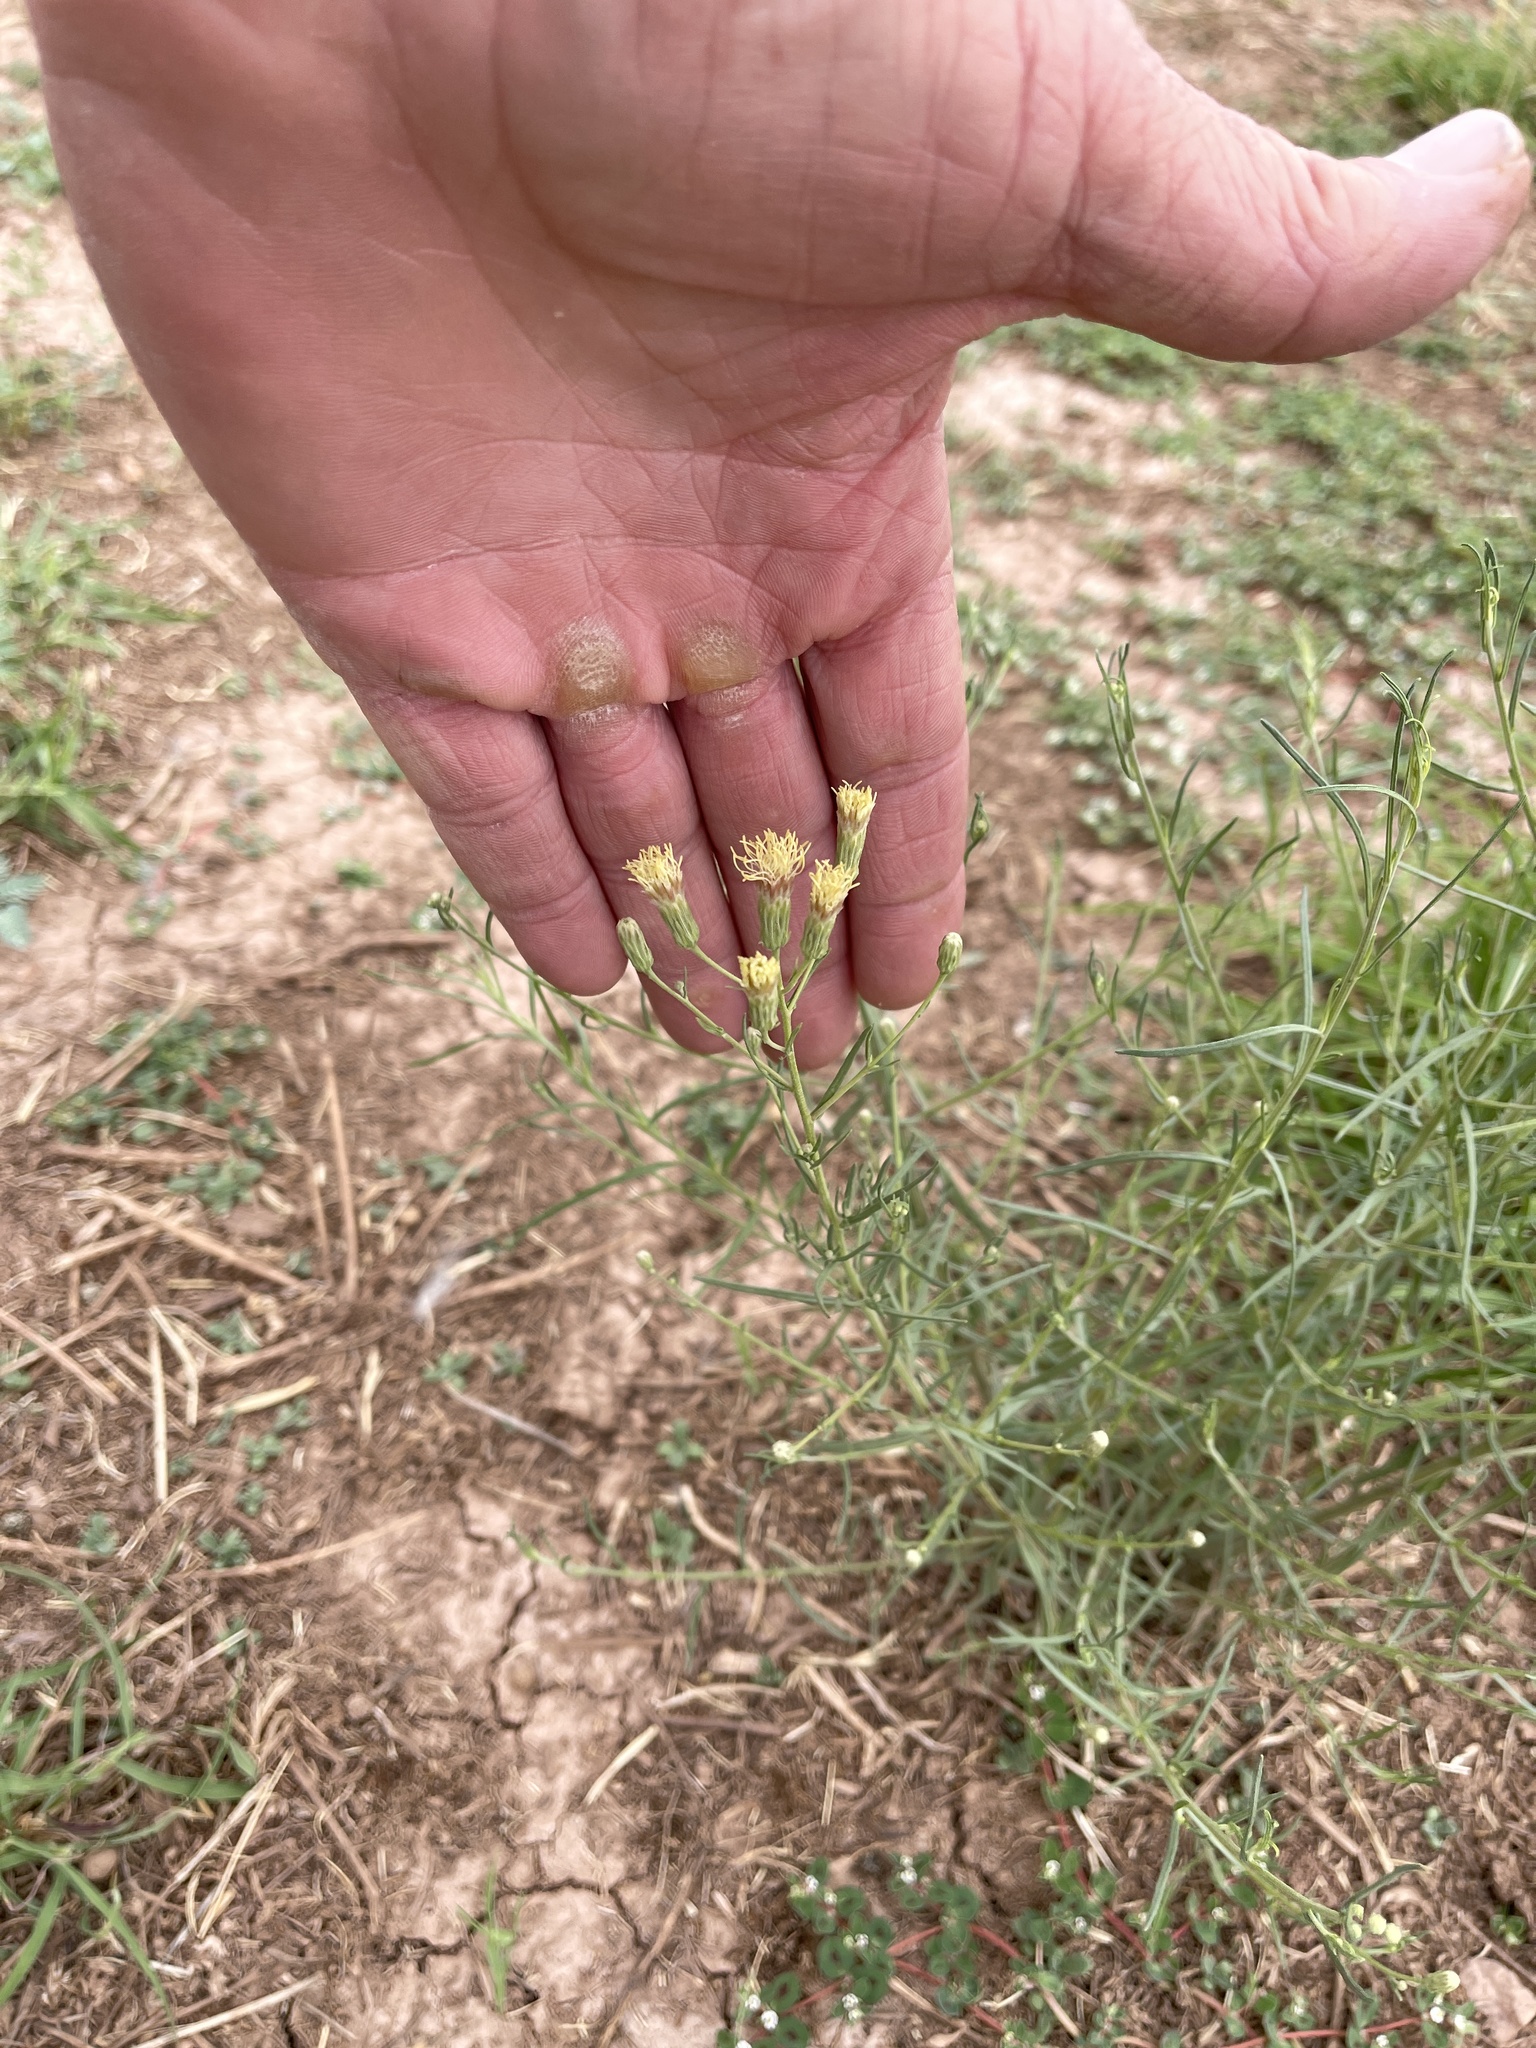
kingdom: Plantae
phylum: Tracheophyta
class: Magnoliopsida
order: Asterales
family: Asteraceae
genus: Brickellia
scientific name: Brickellia eupatorioides
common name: False boneset
